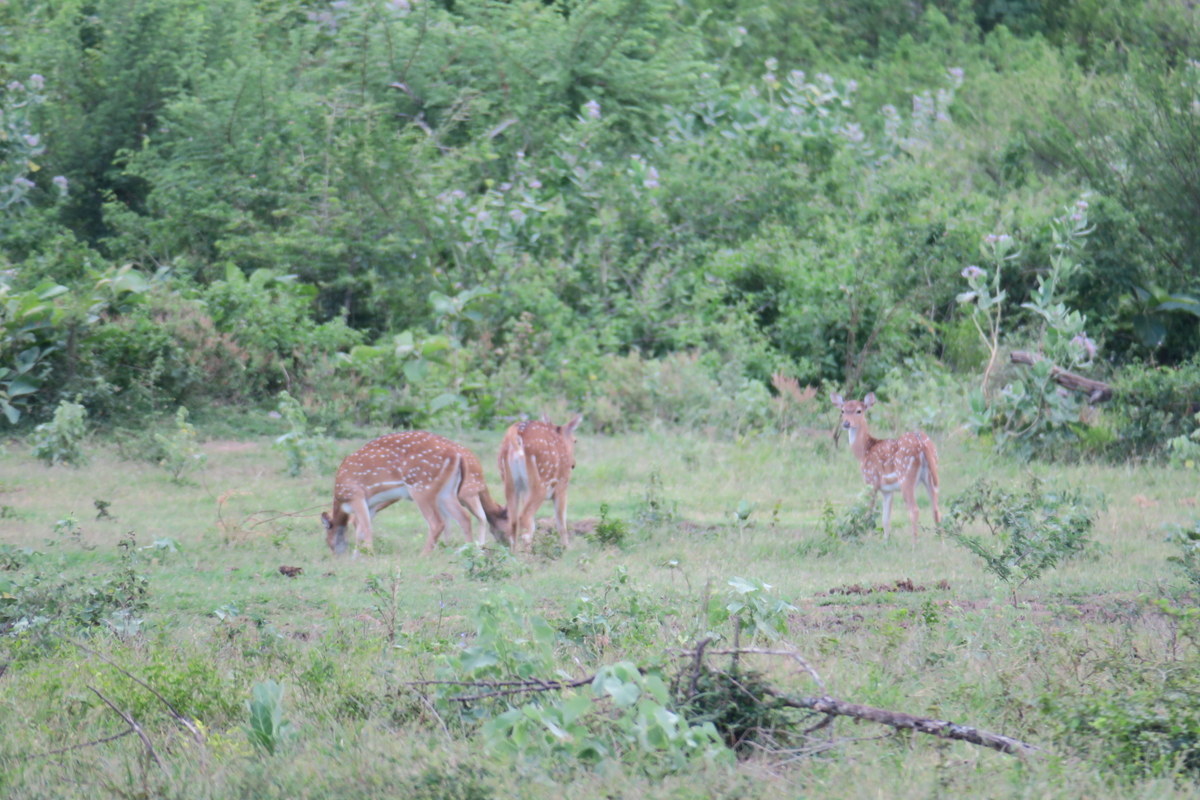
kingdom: Animalia
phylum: Chordata
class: Mammalia
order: Artiodactyla
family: Cervidae
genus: Axis
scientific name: Axis axis
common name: Chital
